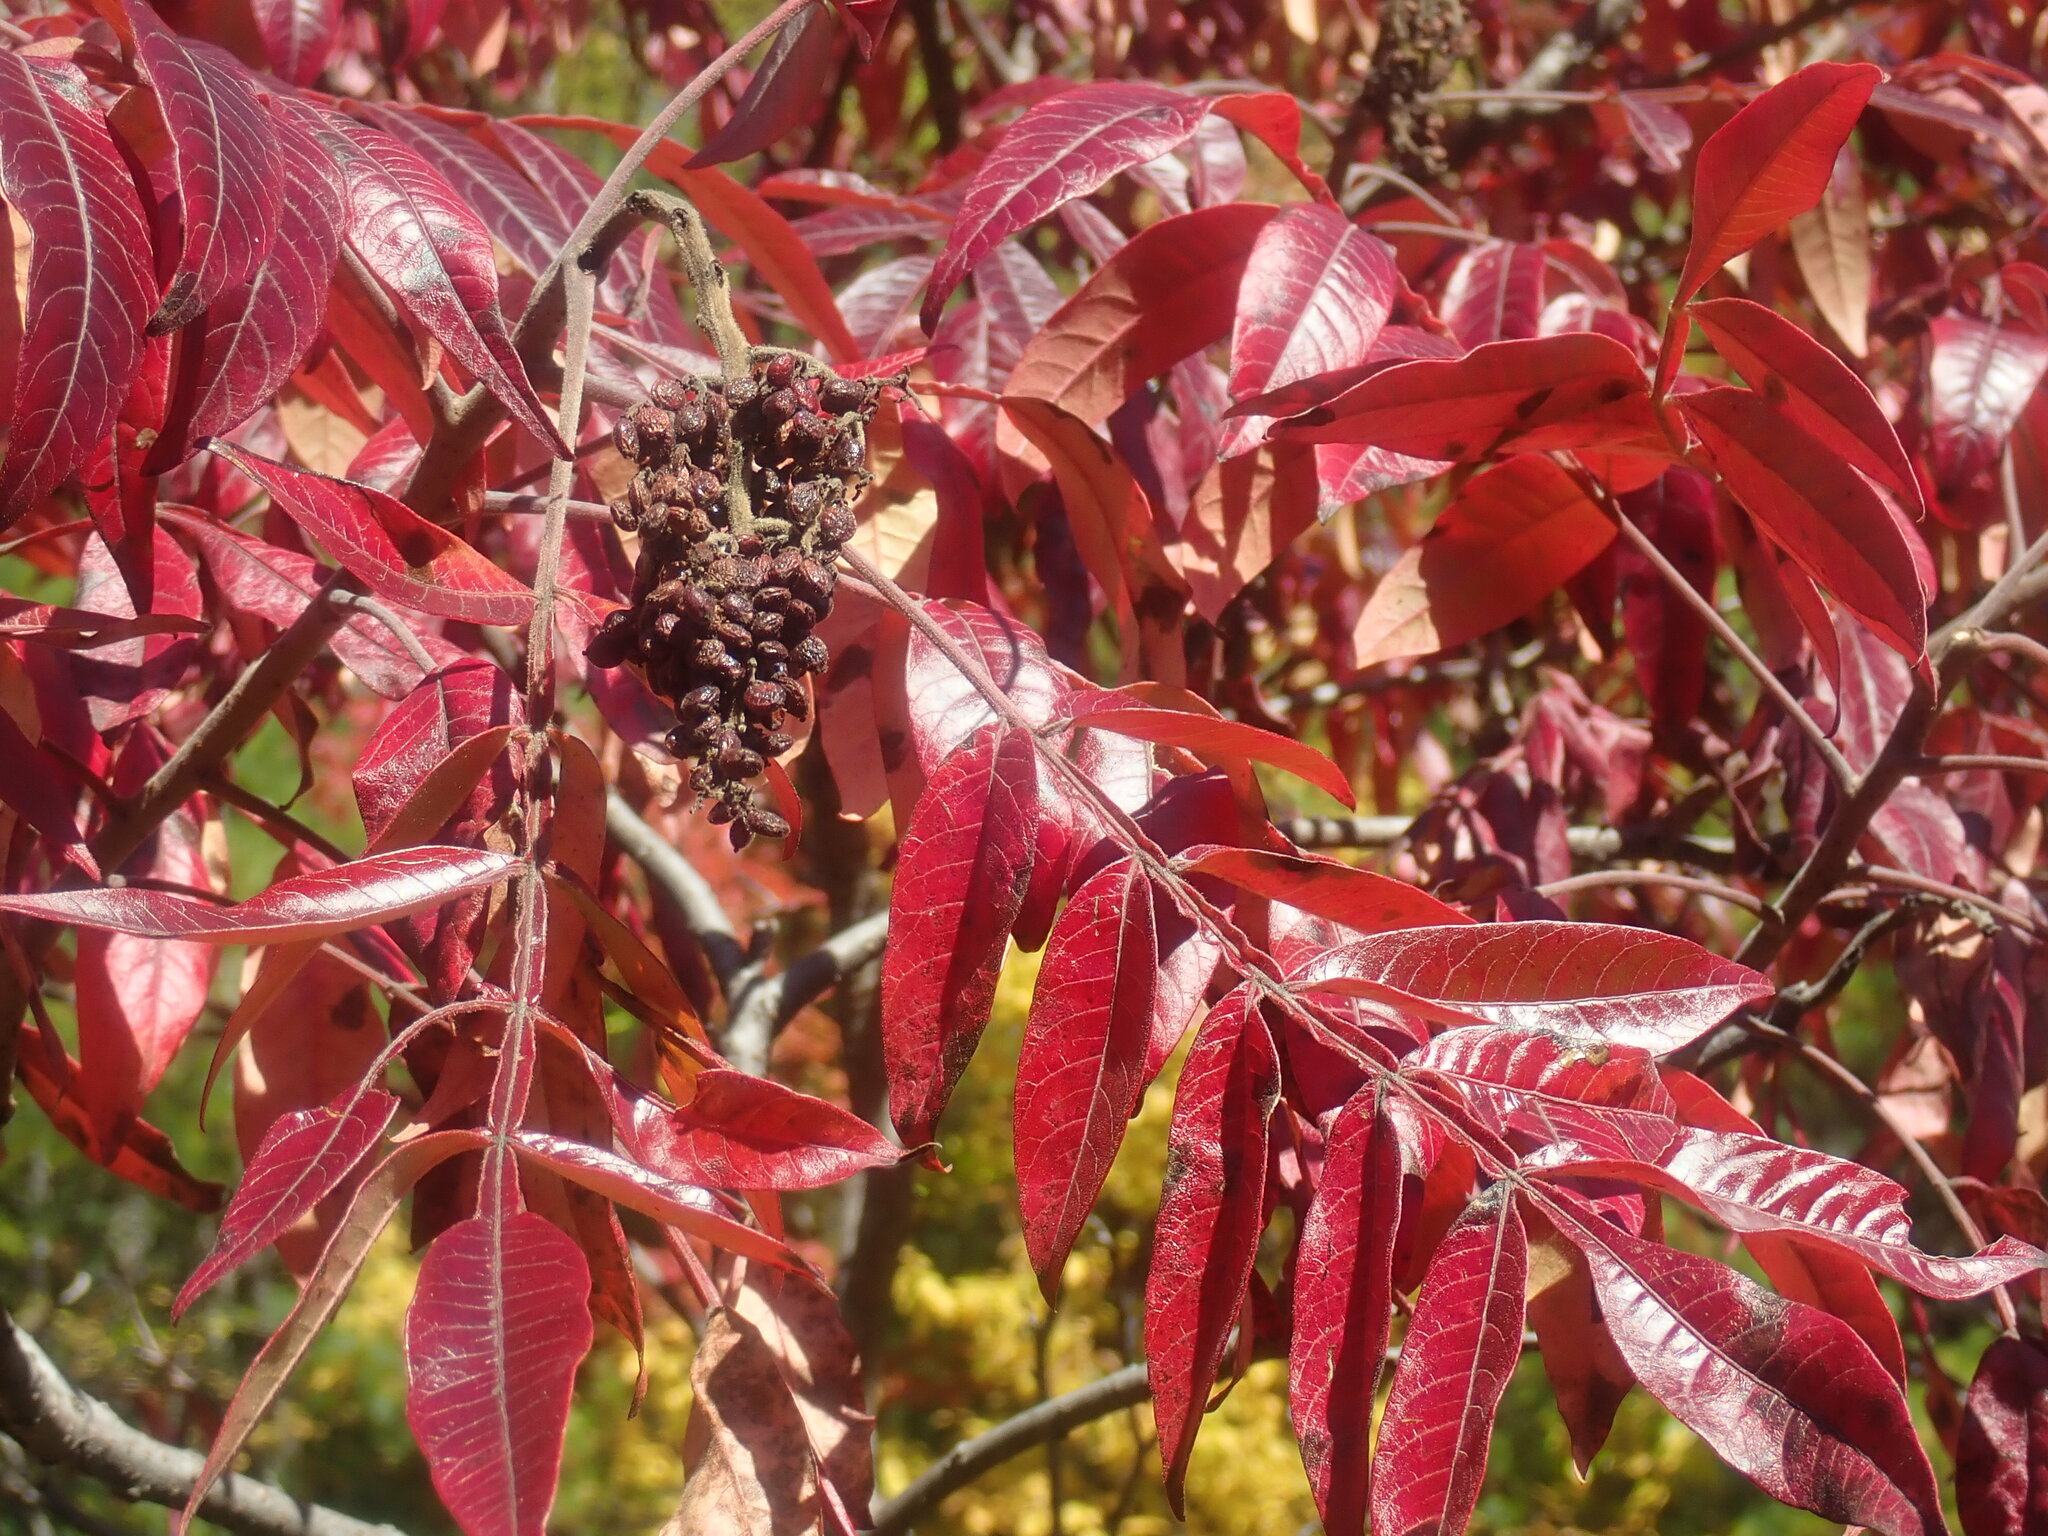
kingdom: Plantae
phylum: Tracheophyta
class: Magnoliopsida
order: Sapindales
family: Anacardiaceae
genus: Rhus
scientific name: Rhus copallina
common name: Shining sumac
